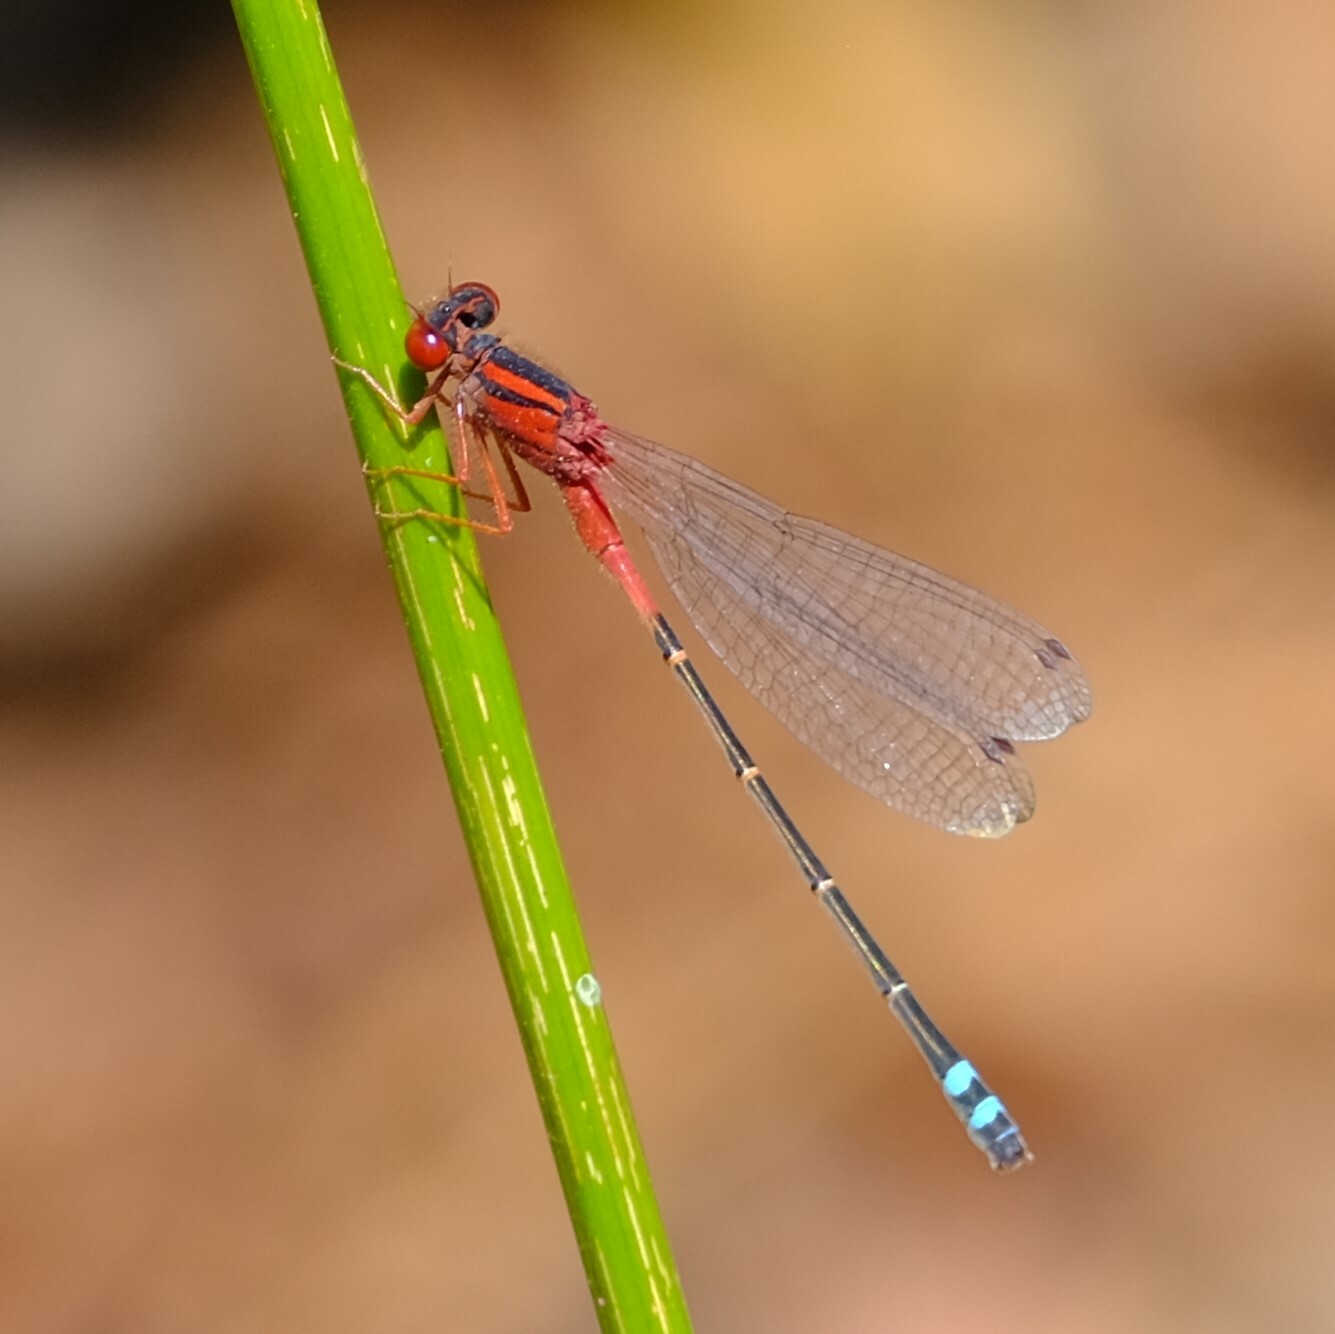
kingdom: Animalia
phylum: Arthropoda
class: Insecta
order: Odonata
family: Coenagrionidae
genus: Xanthagrion
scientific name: Xanthagrion erythroneurum
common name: Red and blue damsel
